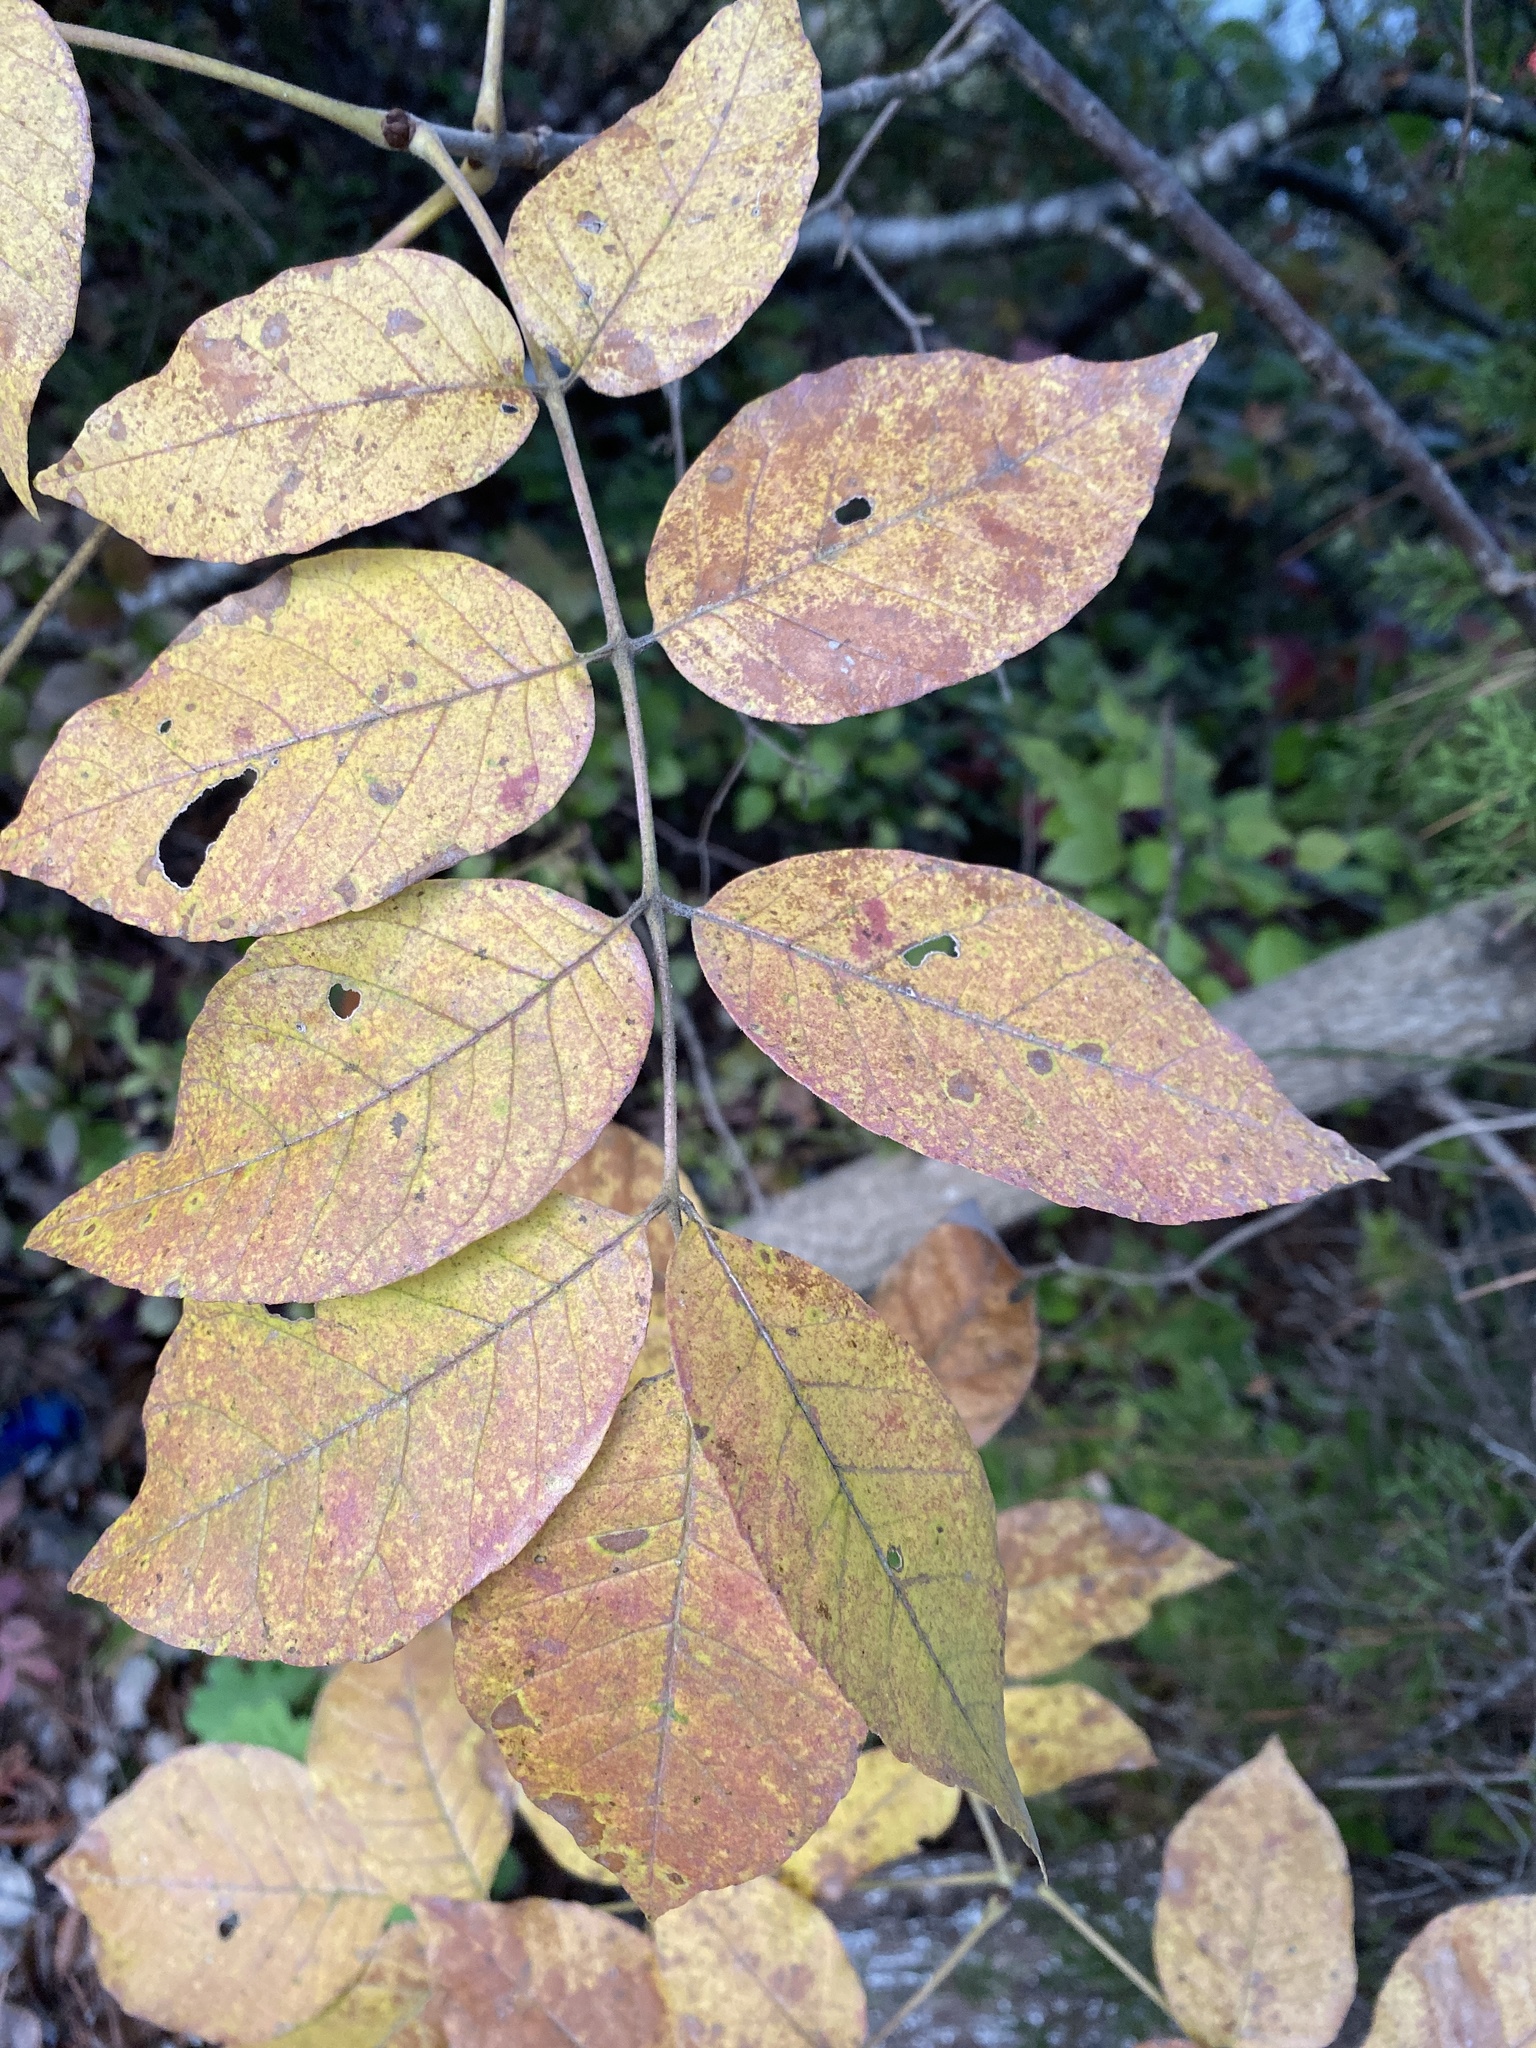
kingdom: Plantae
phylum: Tracheophyta
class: Magnoliopsida
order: Lamiales
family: Oleaceae
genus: Fraxinus
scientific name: Fraxinus americana
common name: White ash
